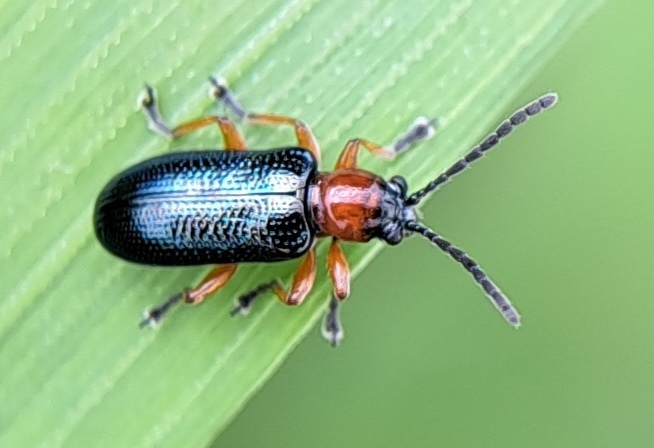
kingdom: Animalia
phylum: Arthropoda
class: Insecta
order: Coleoptera
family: Chrysomelidae
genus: Oulema
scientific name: Oulema
